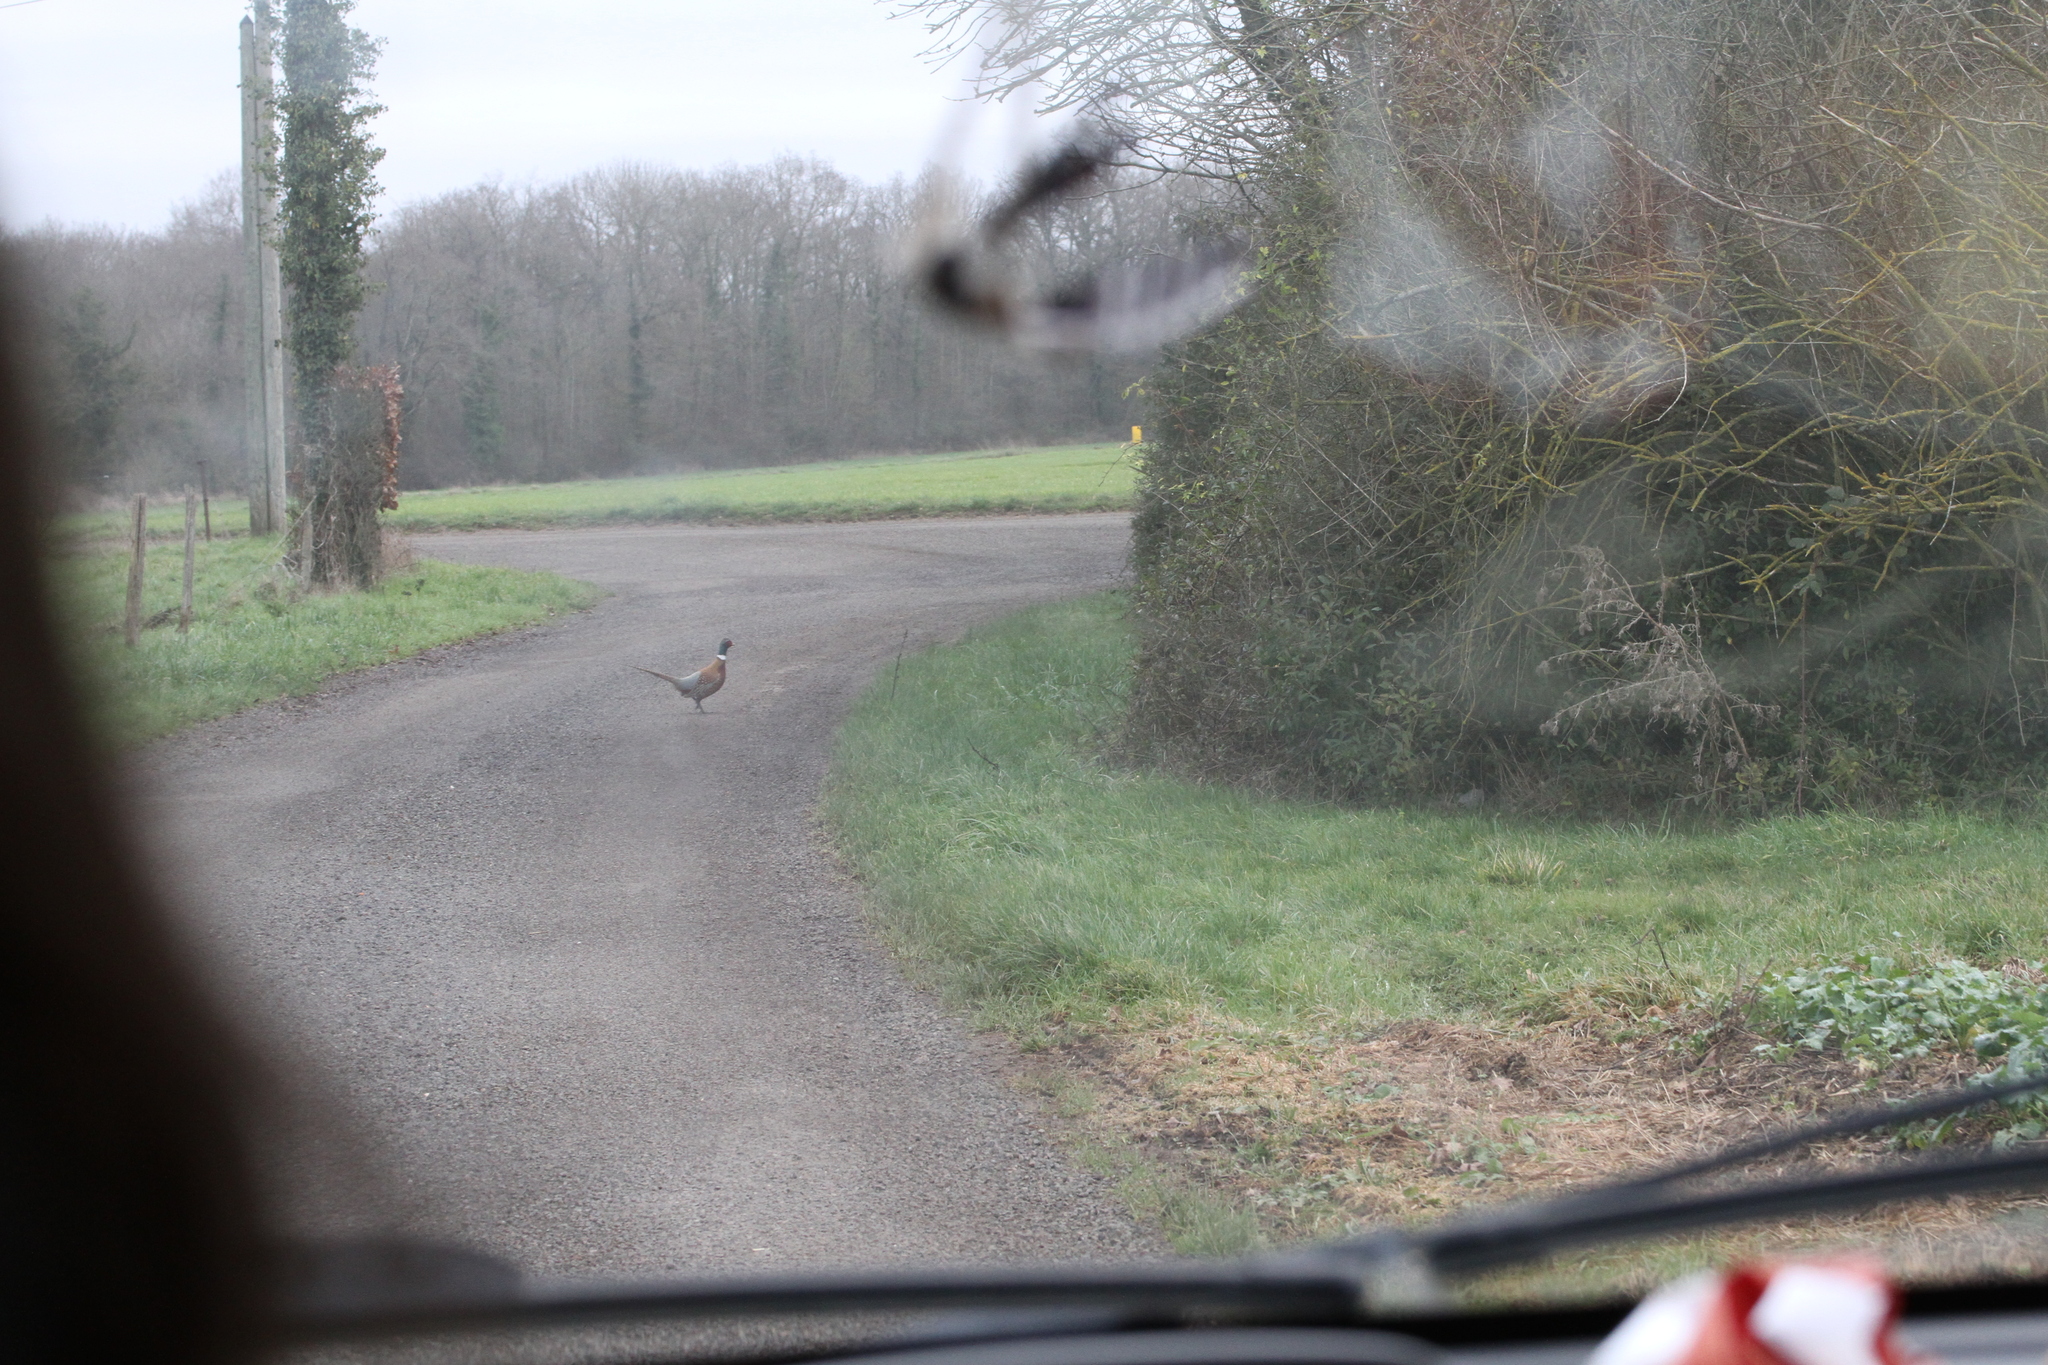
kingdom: Animalia
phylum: Chordata
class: Aves
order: Galliformes
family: Phasianidae
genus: Phasianus
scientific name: Phasianus colchicus
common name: Common pheasant
